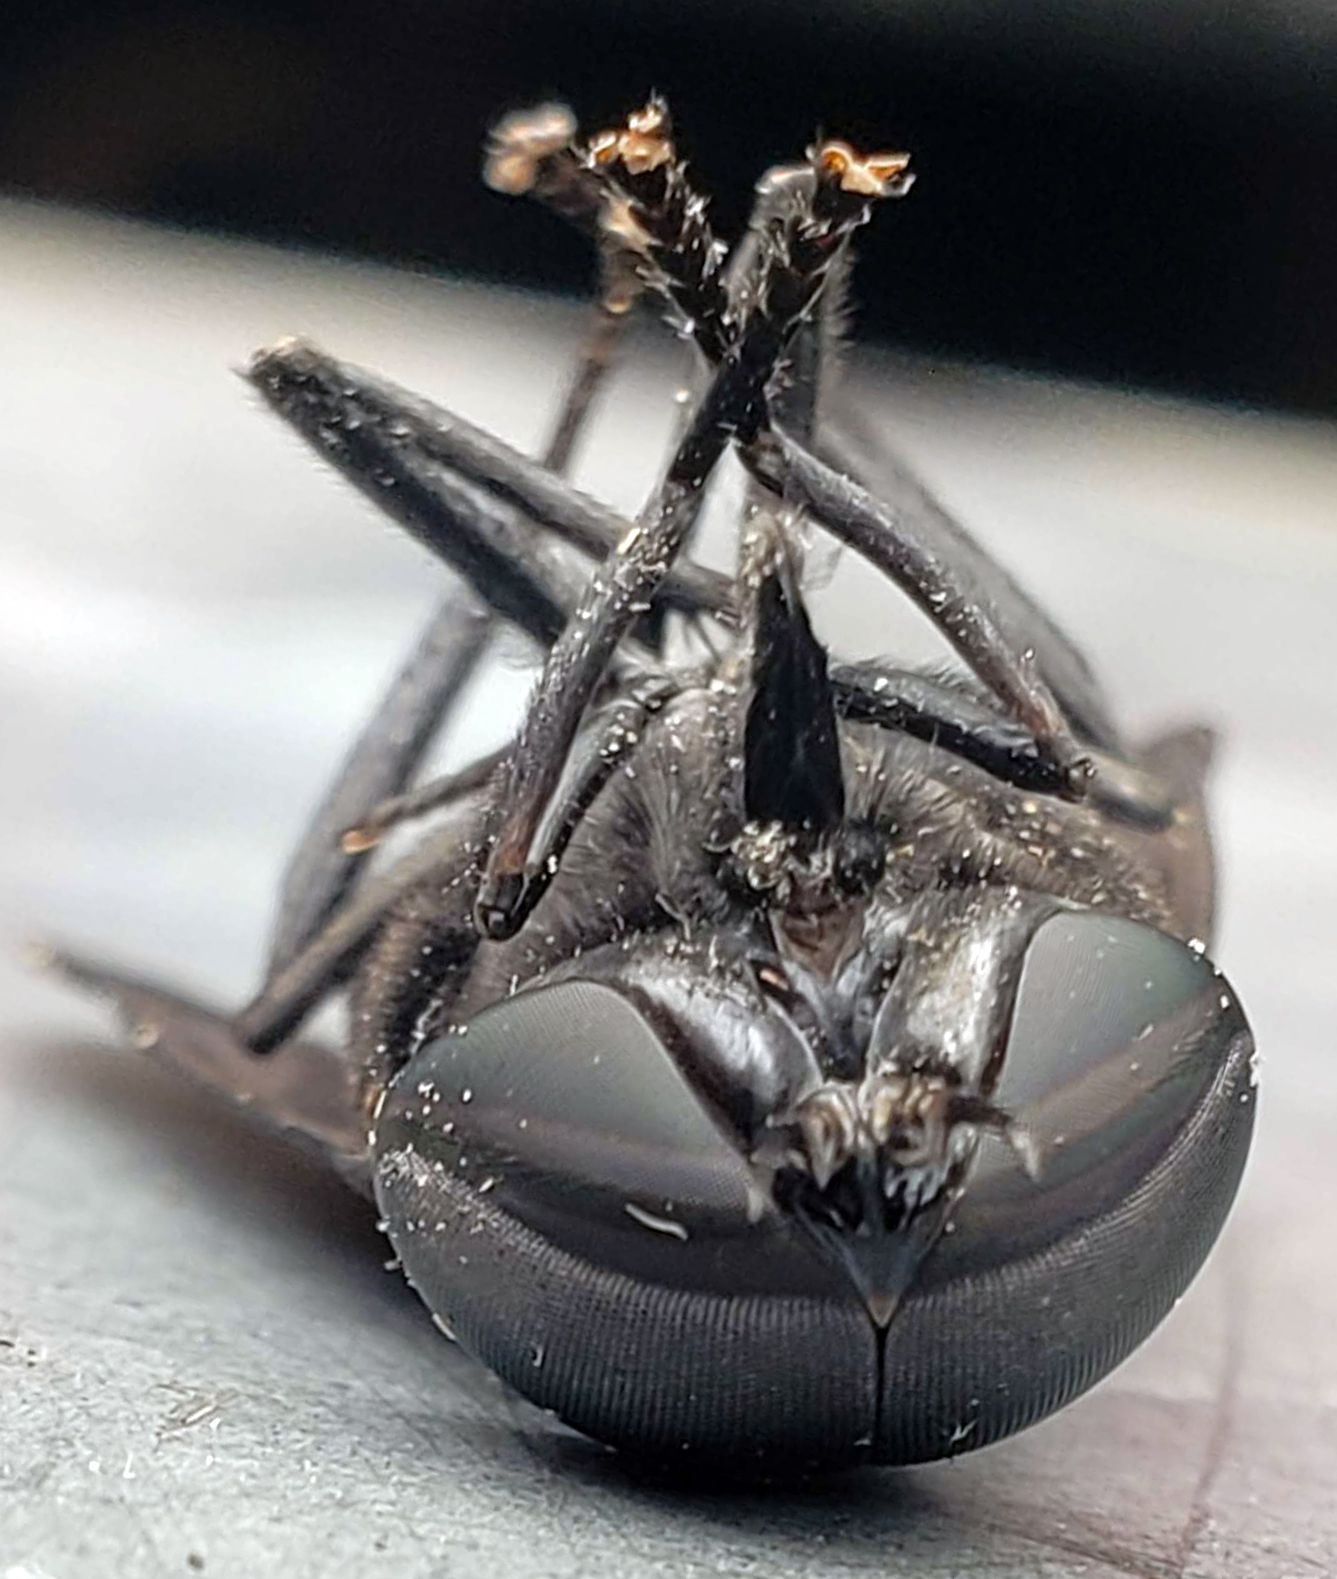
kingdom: Animalia
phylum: Arthropoda
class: Insecta
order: Diptera
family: Tabanidae
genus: Tabanus
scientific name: Tabanus atratus
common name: Black horse fly
